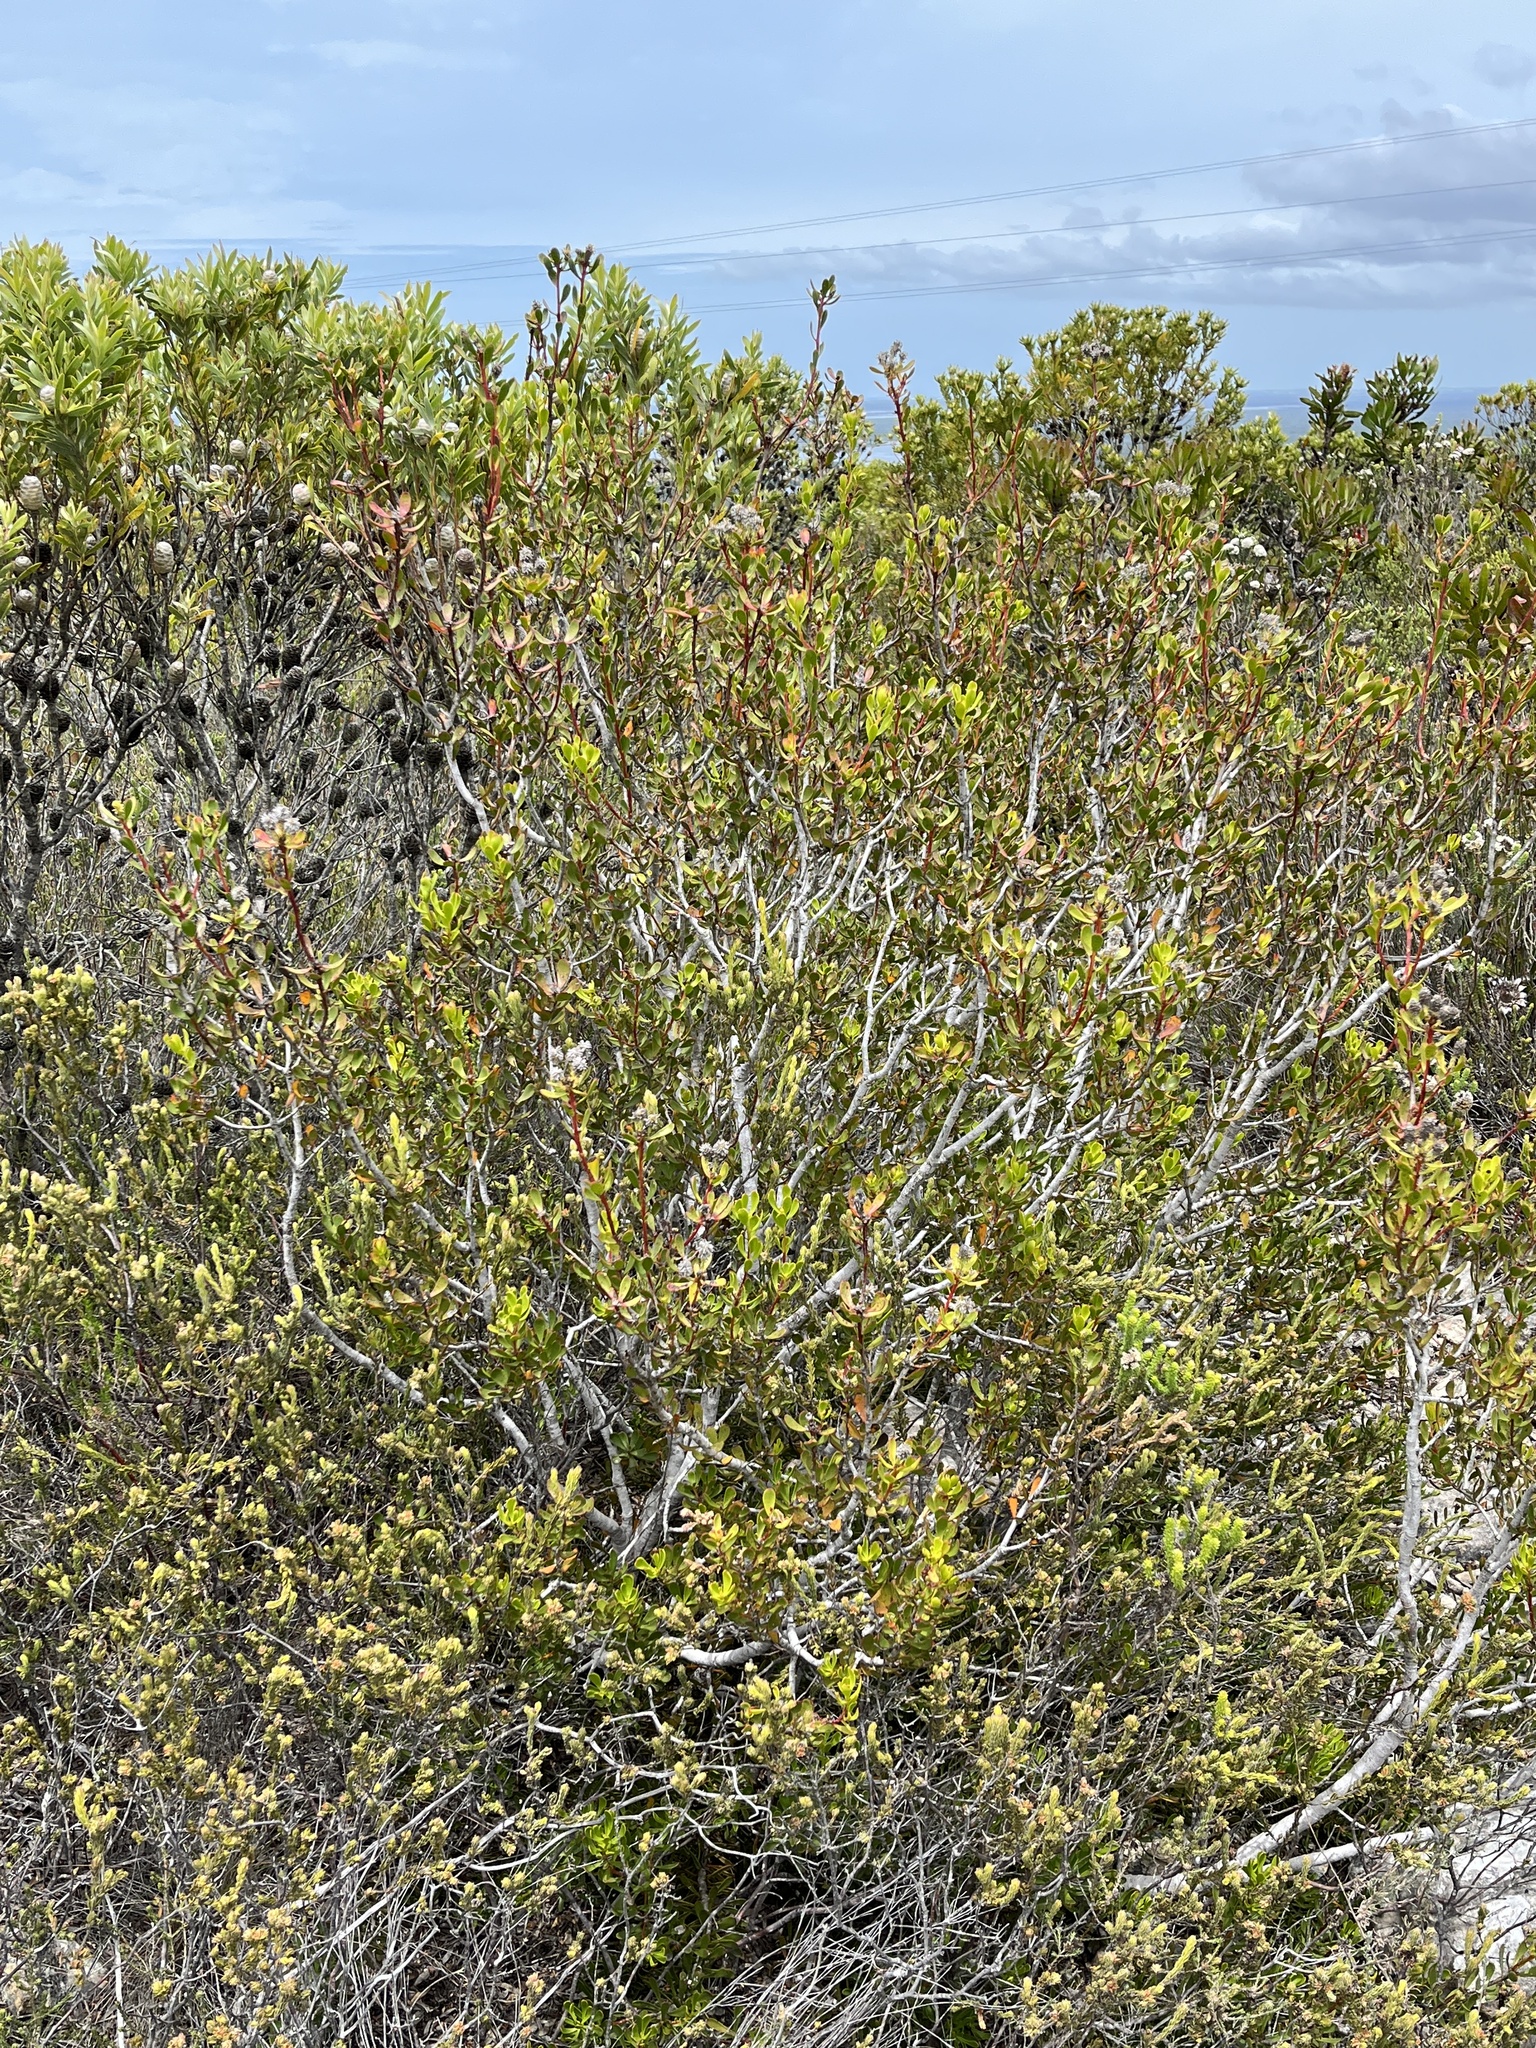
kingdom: Plantae
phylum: Tracheophyta
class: Magnoliopsida
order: Proteales
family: Proteaceae
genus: Leucadendron
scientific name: Leucadendron muirii
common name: Silver-ball conebush
